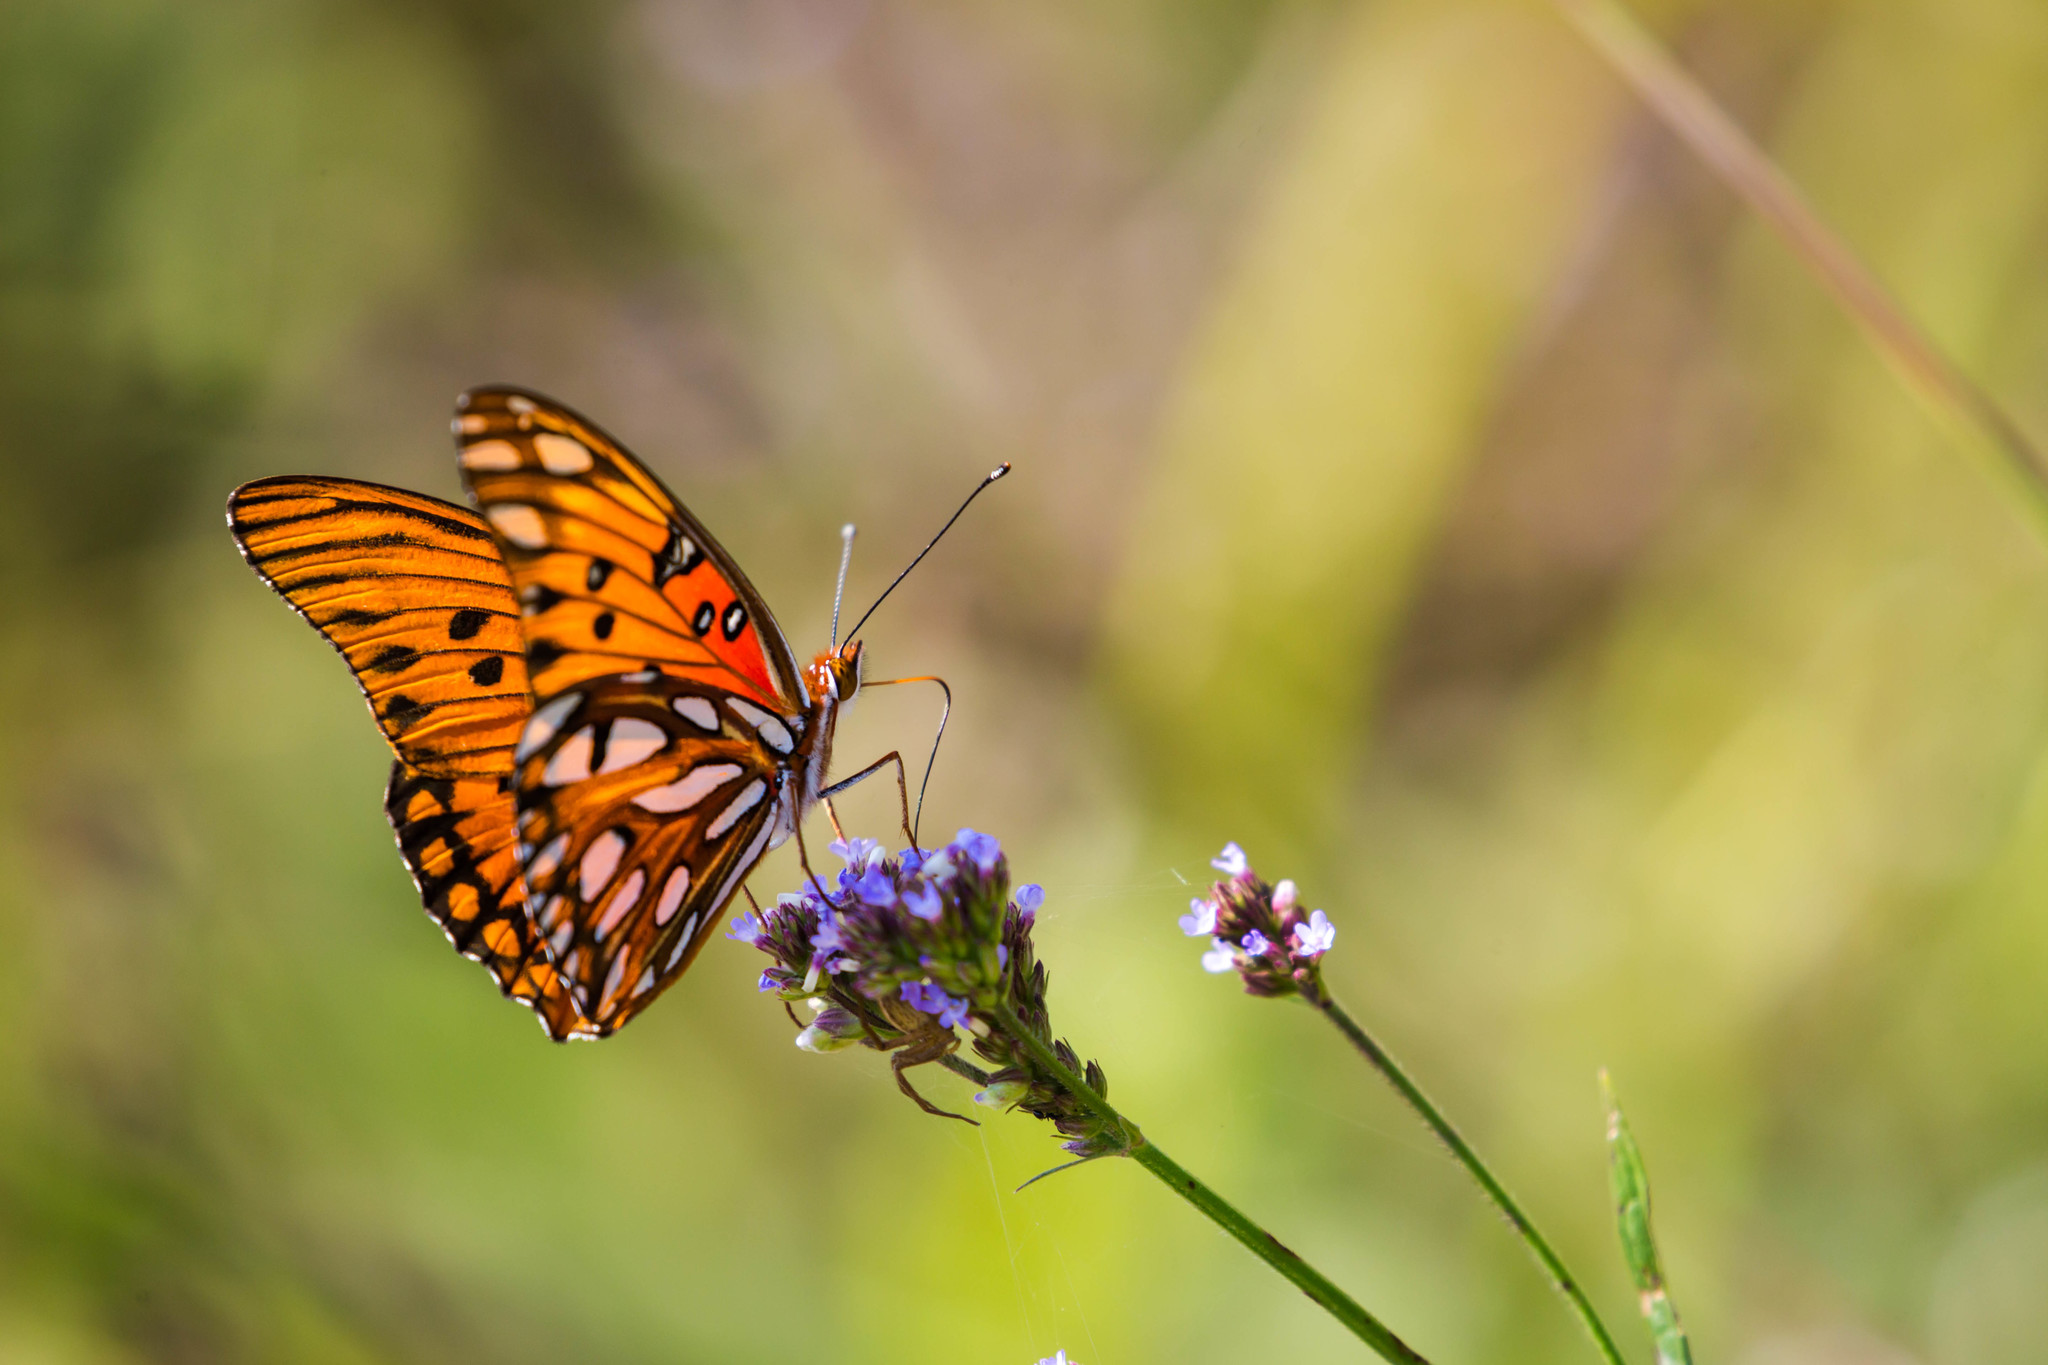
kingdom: Animalia
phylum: Arthropoda
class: Insecta
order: Lepidoptera
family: Nymphalidae
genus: Dione
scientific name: Dione vanillae
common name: Gulf fritillary
